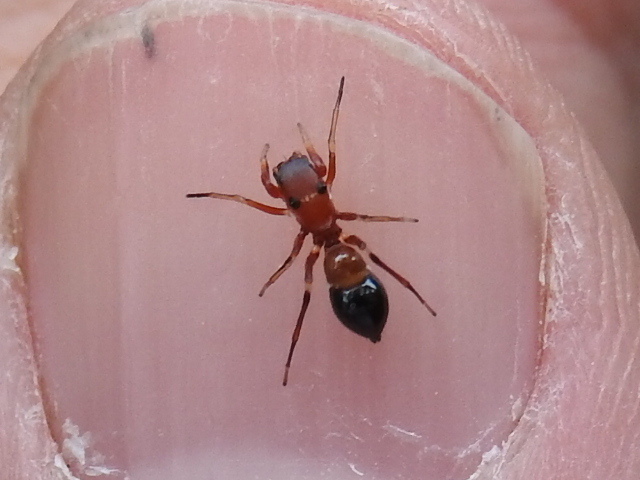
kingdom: Animalia
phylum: Arthropoda
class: Arachnida
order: Araneae
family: Salticidae
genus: Peckhamia
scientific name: Peckhamia
